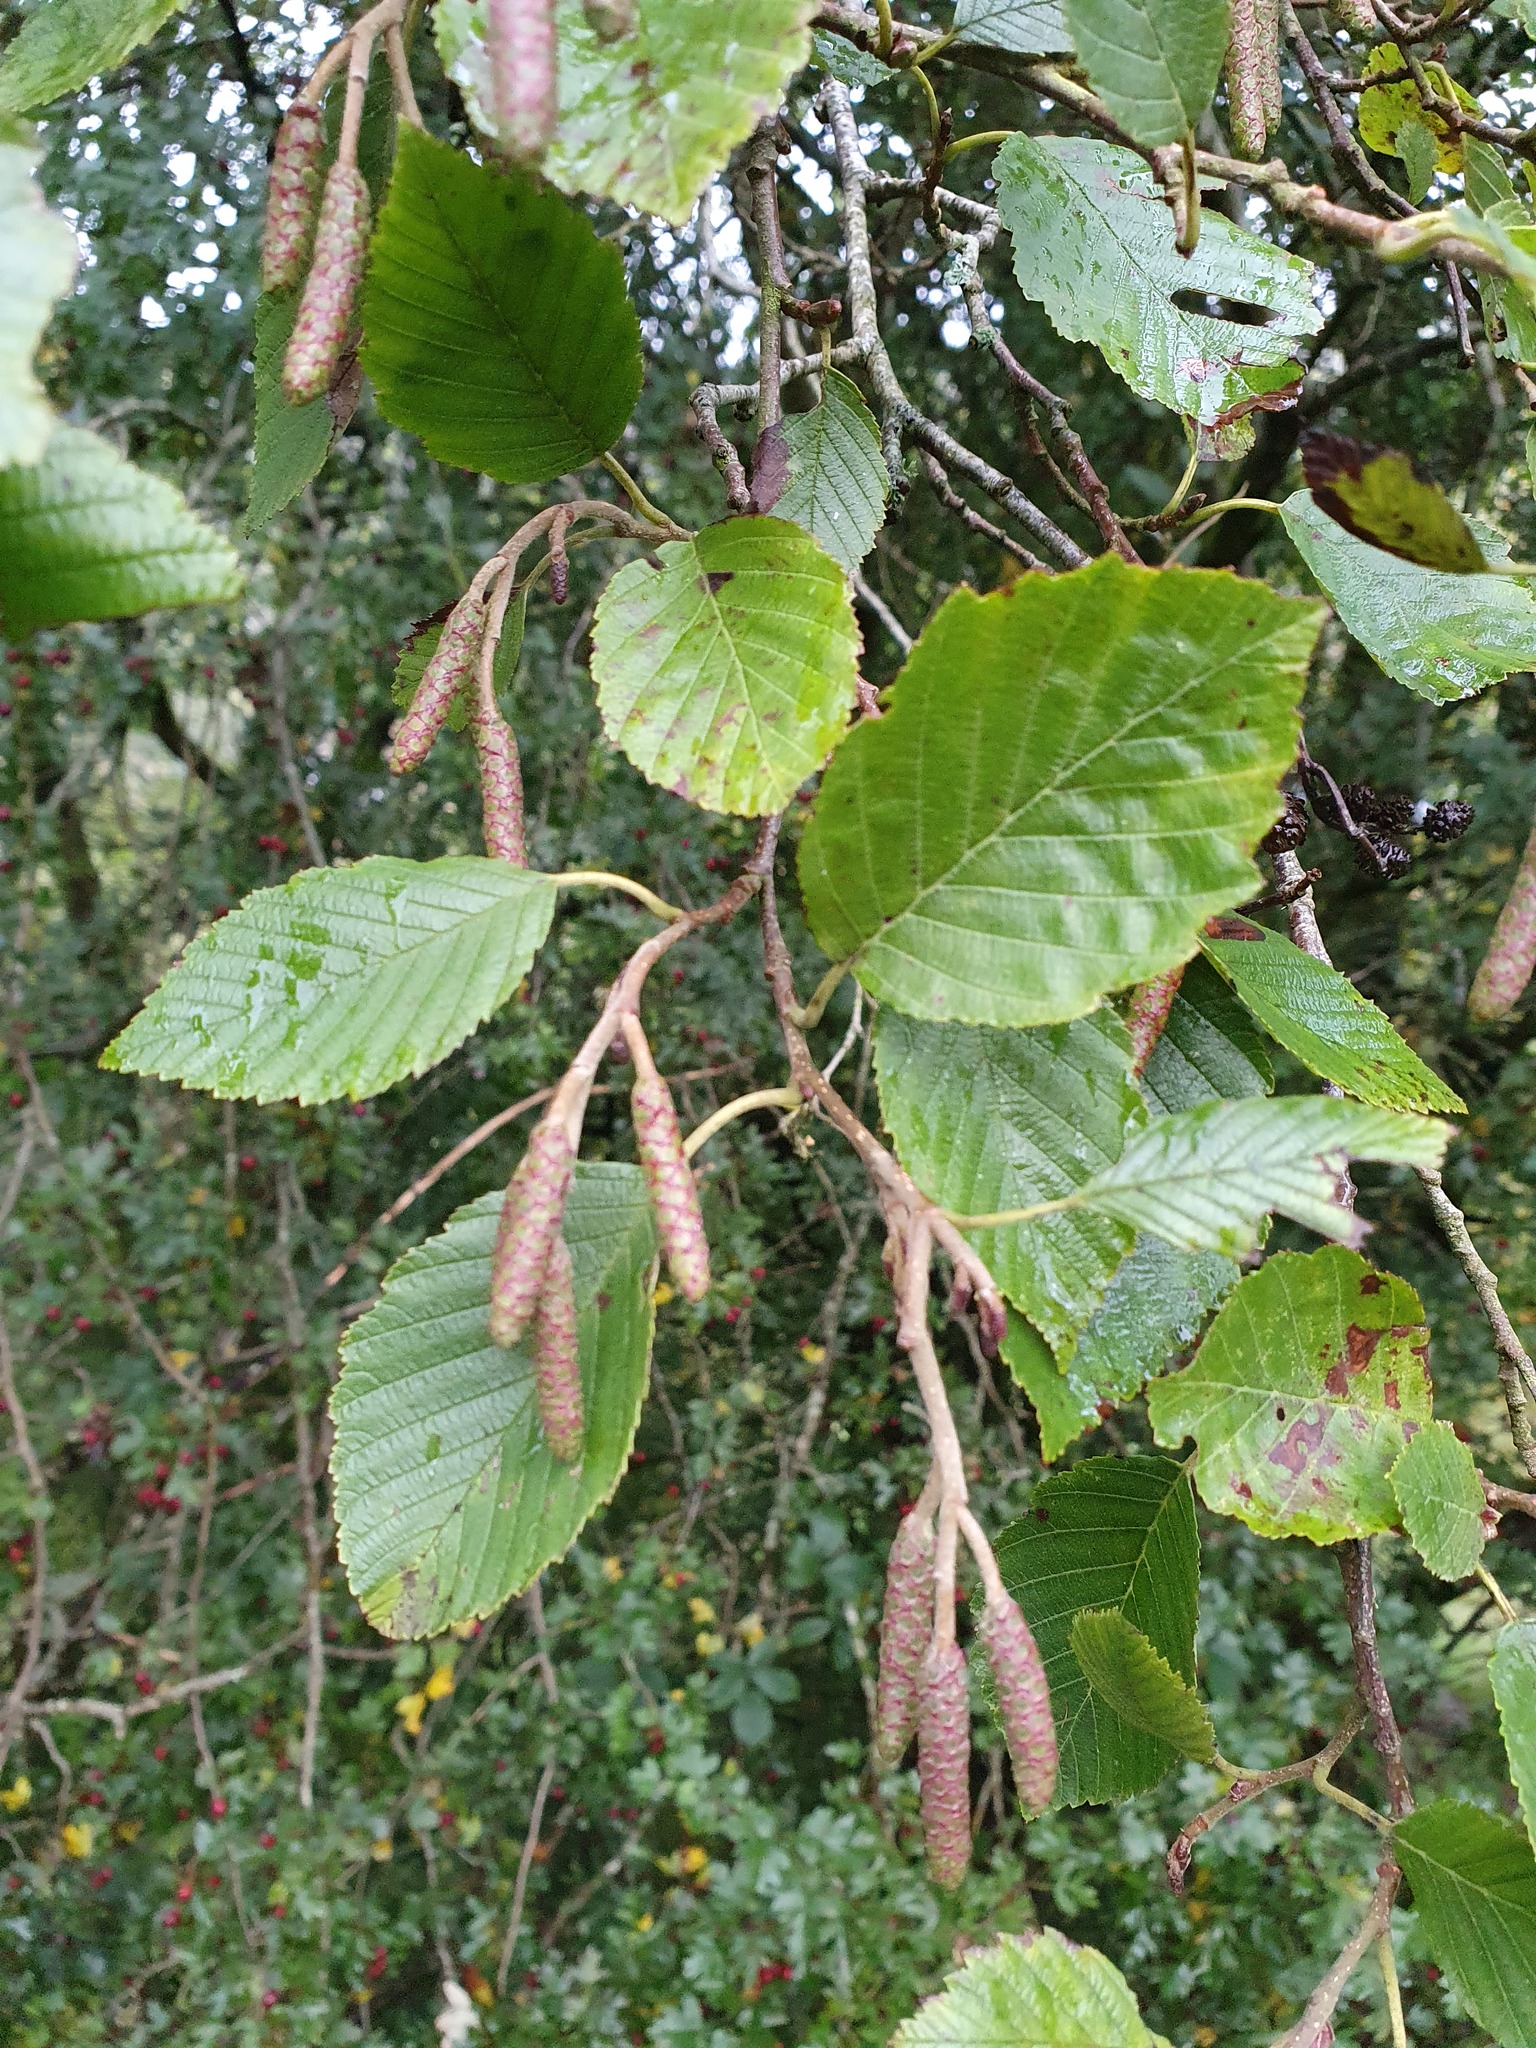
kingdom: Plantae
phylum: Tracheophyta
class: Magnoliopsida
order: Fagales
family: Betulaceae
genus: Alnus
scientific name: Alnus incana
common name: Grey alder
